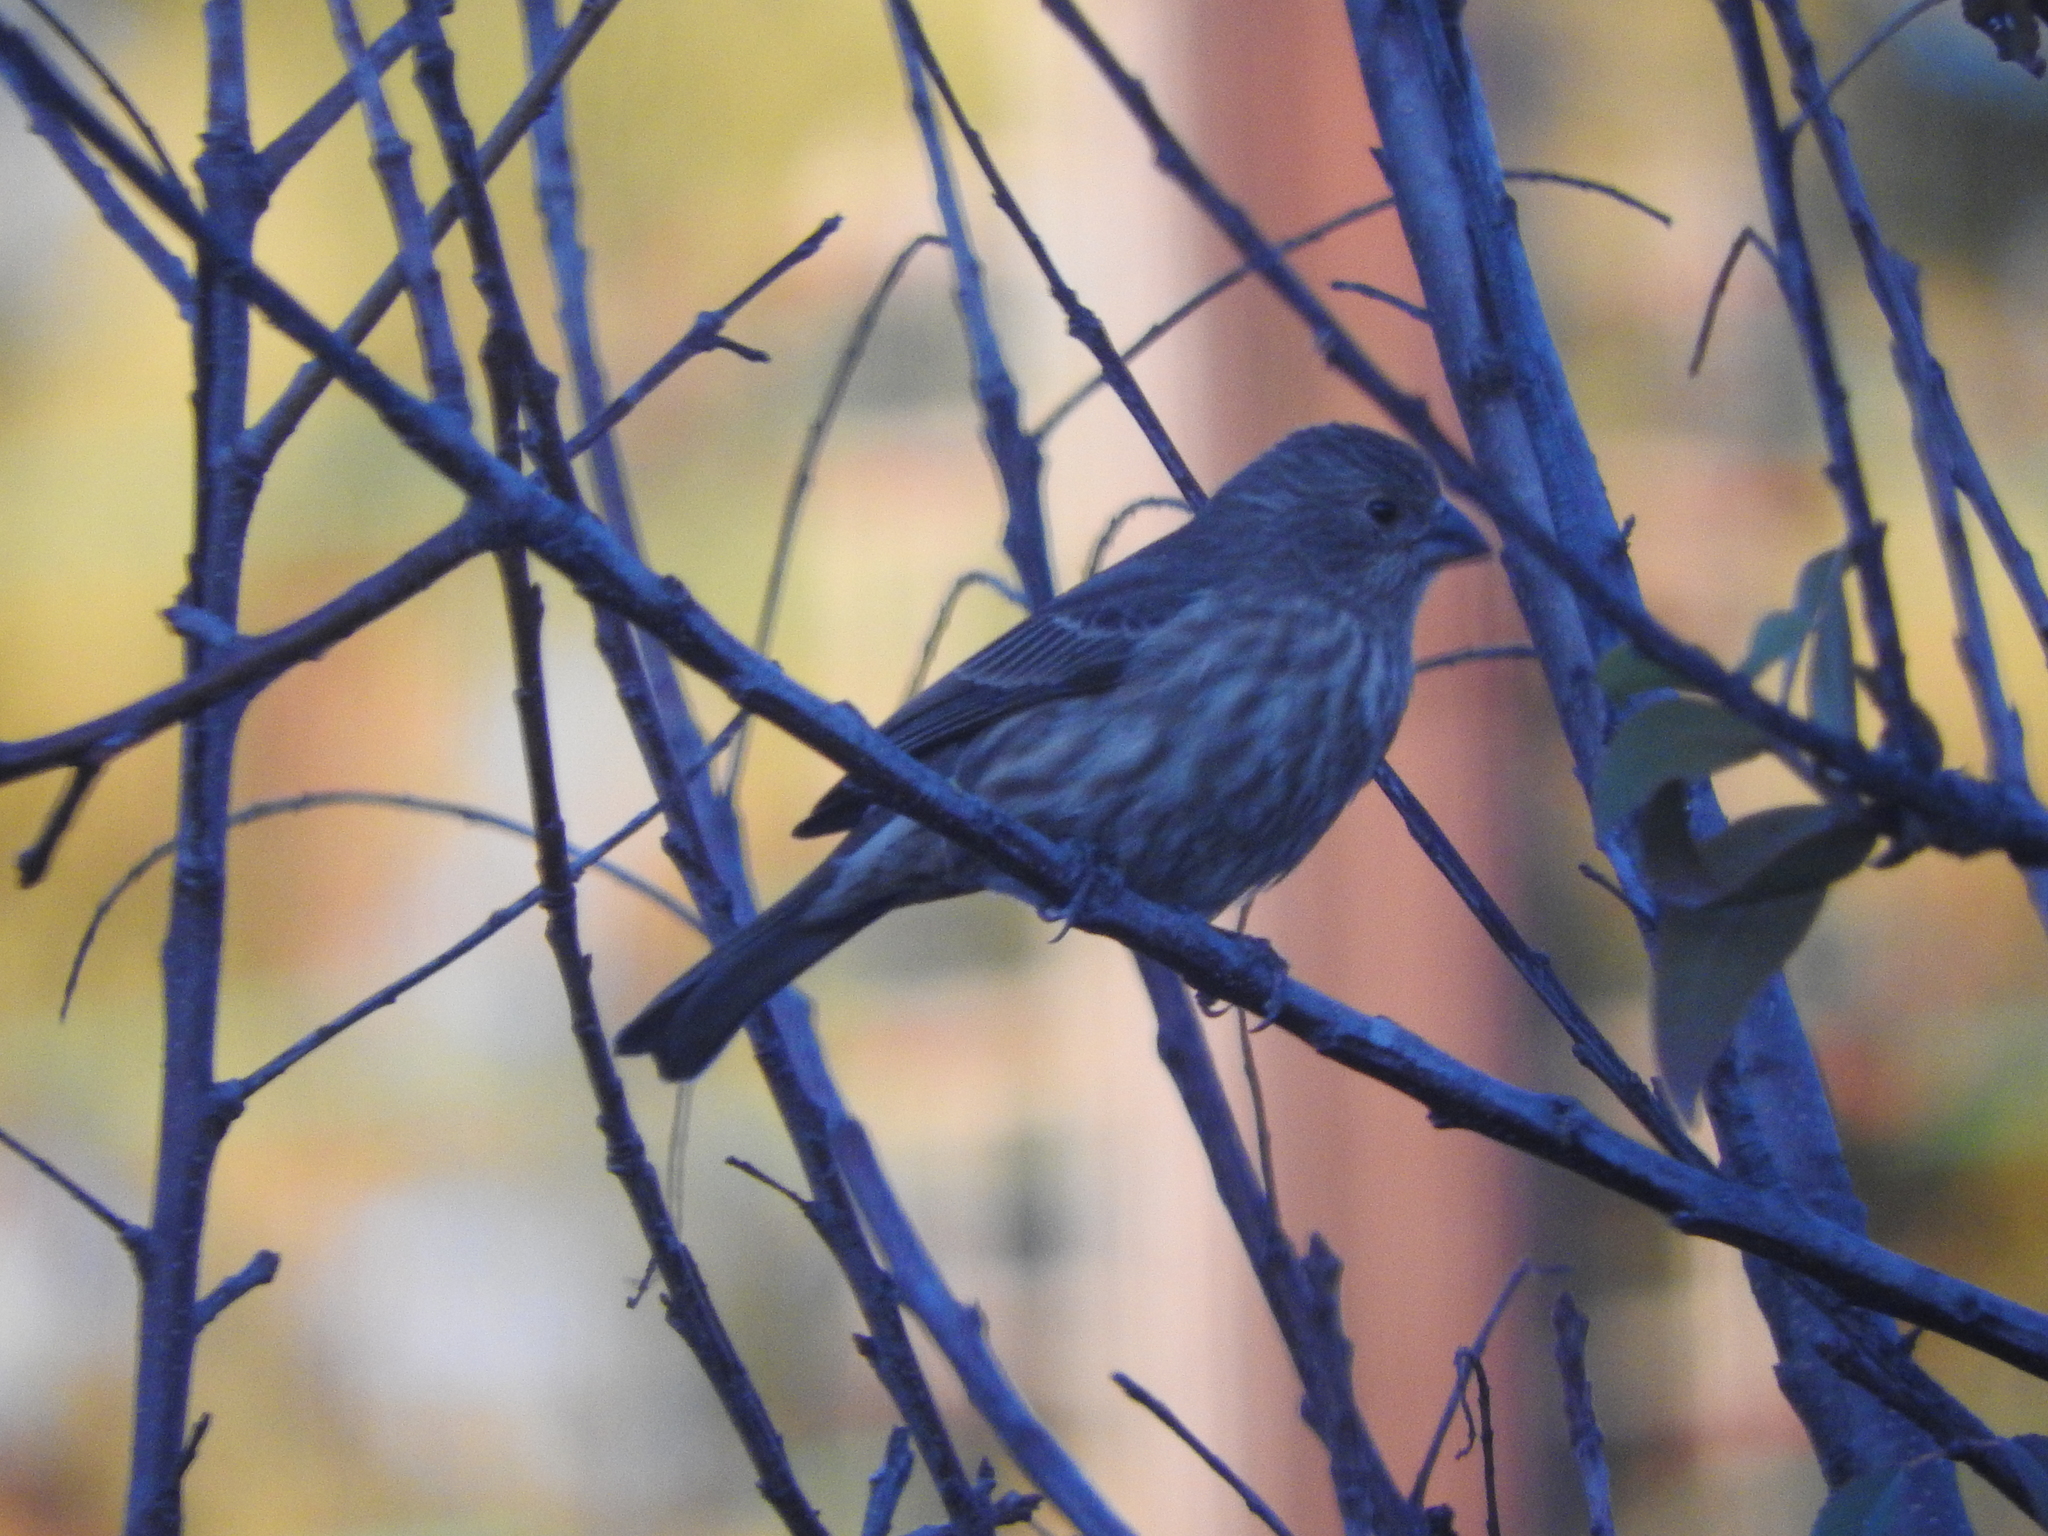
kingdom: Animalia
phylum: Chordata
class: Aves
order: Passeriformes
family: Fringillidae
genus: Haemorhous
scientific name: Haemorhous mexicanus
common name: House finch
